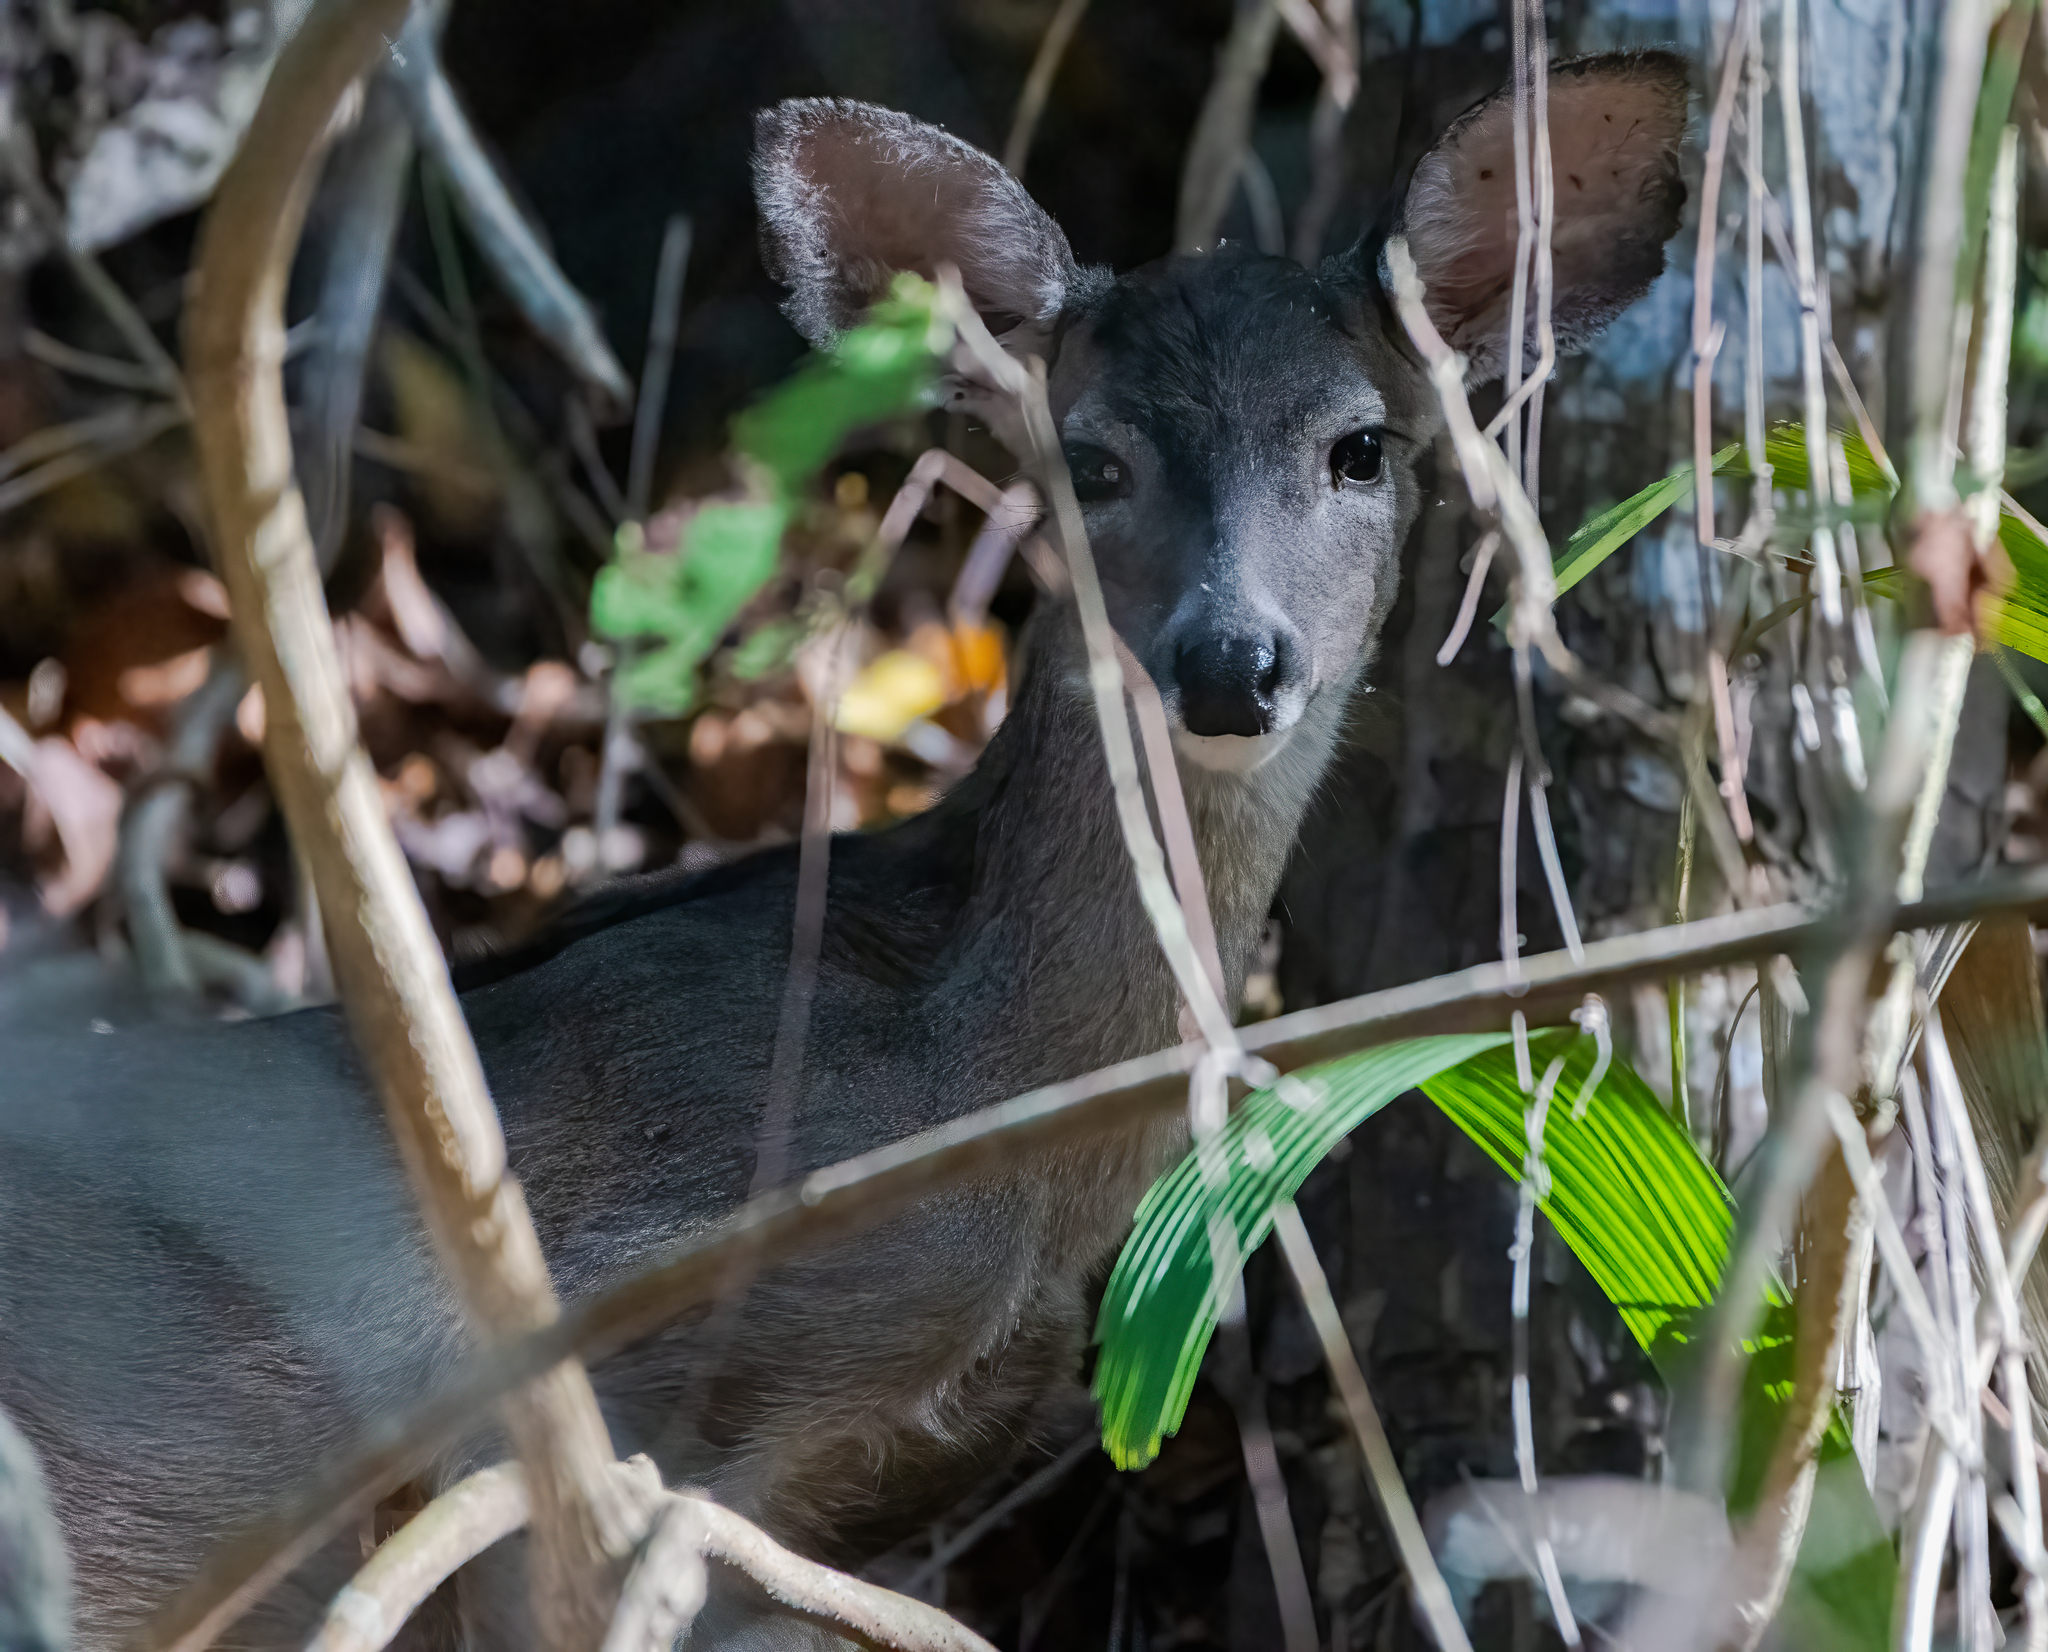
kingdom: Animalia
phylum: Chordata
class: Mammalia
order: Artiodactyla
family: Cervidae
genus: Odocoileus
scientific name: Odocoileus virginianus
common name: White-tailed deer
